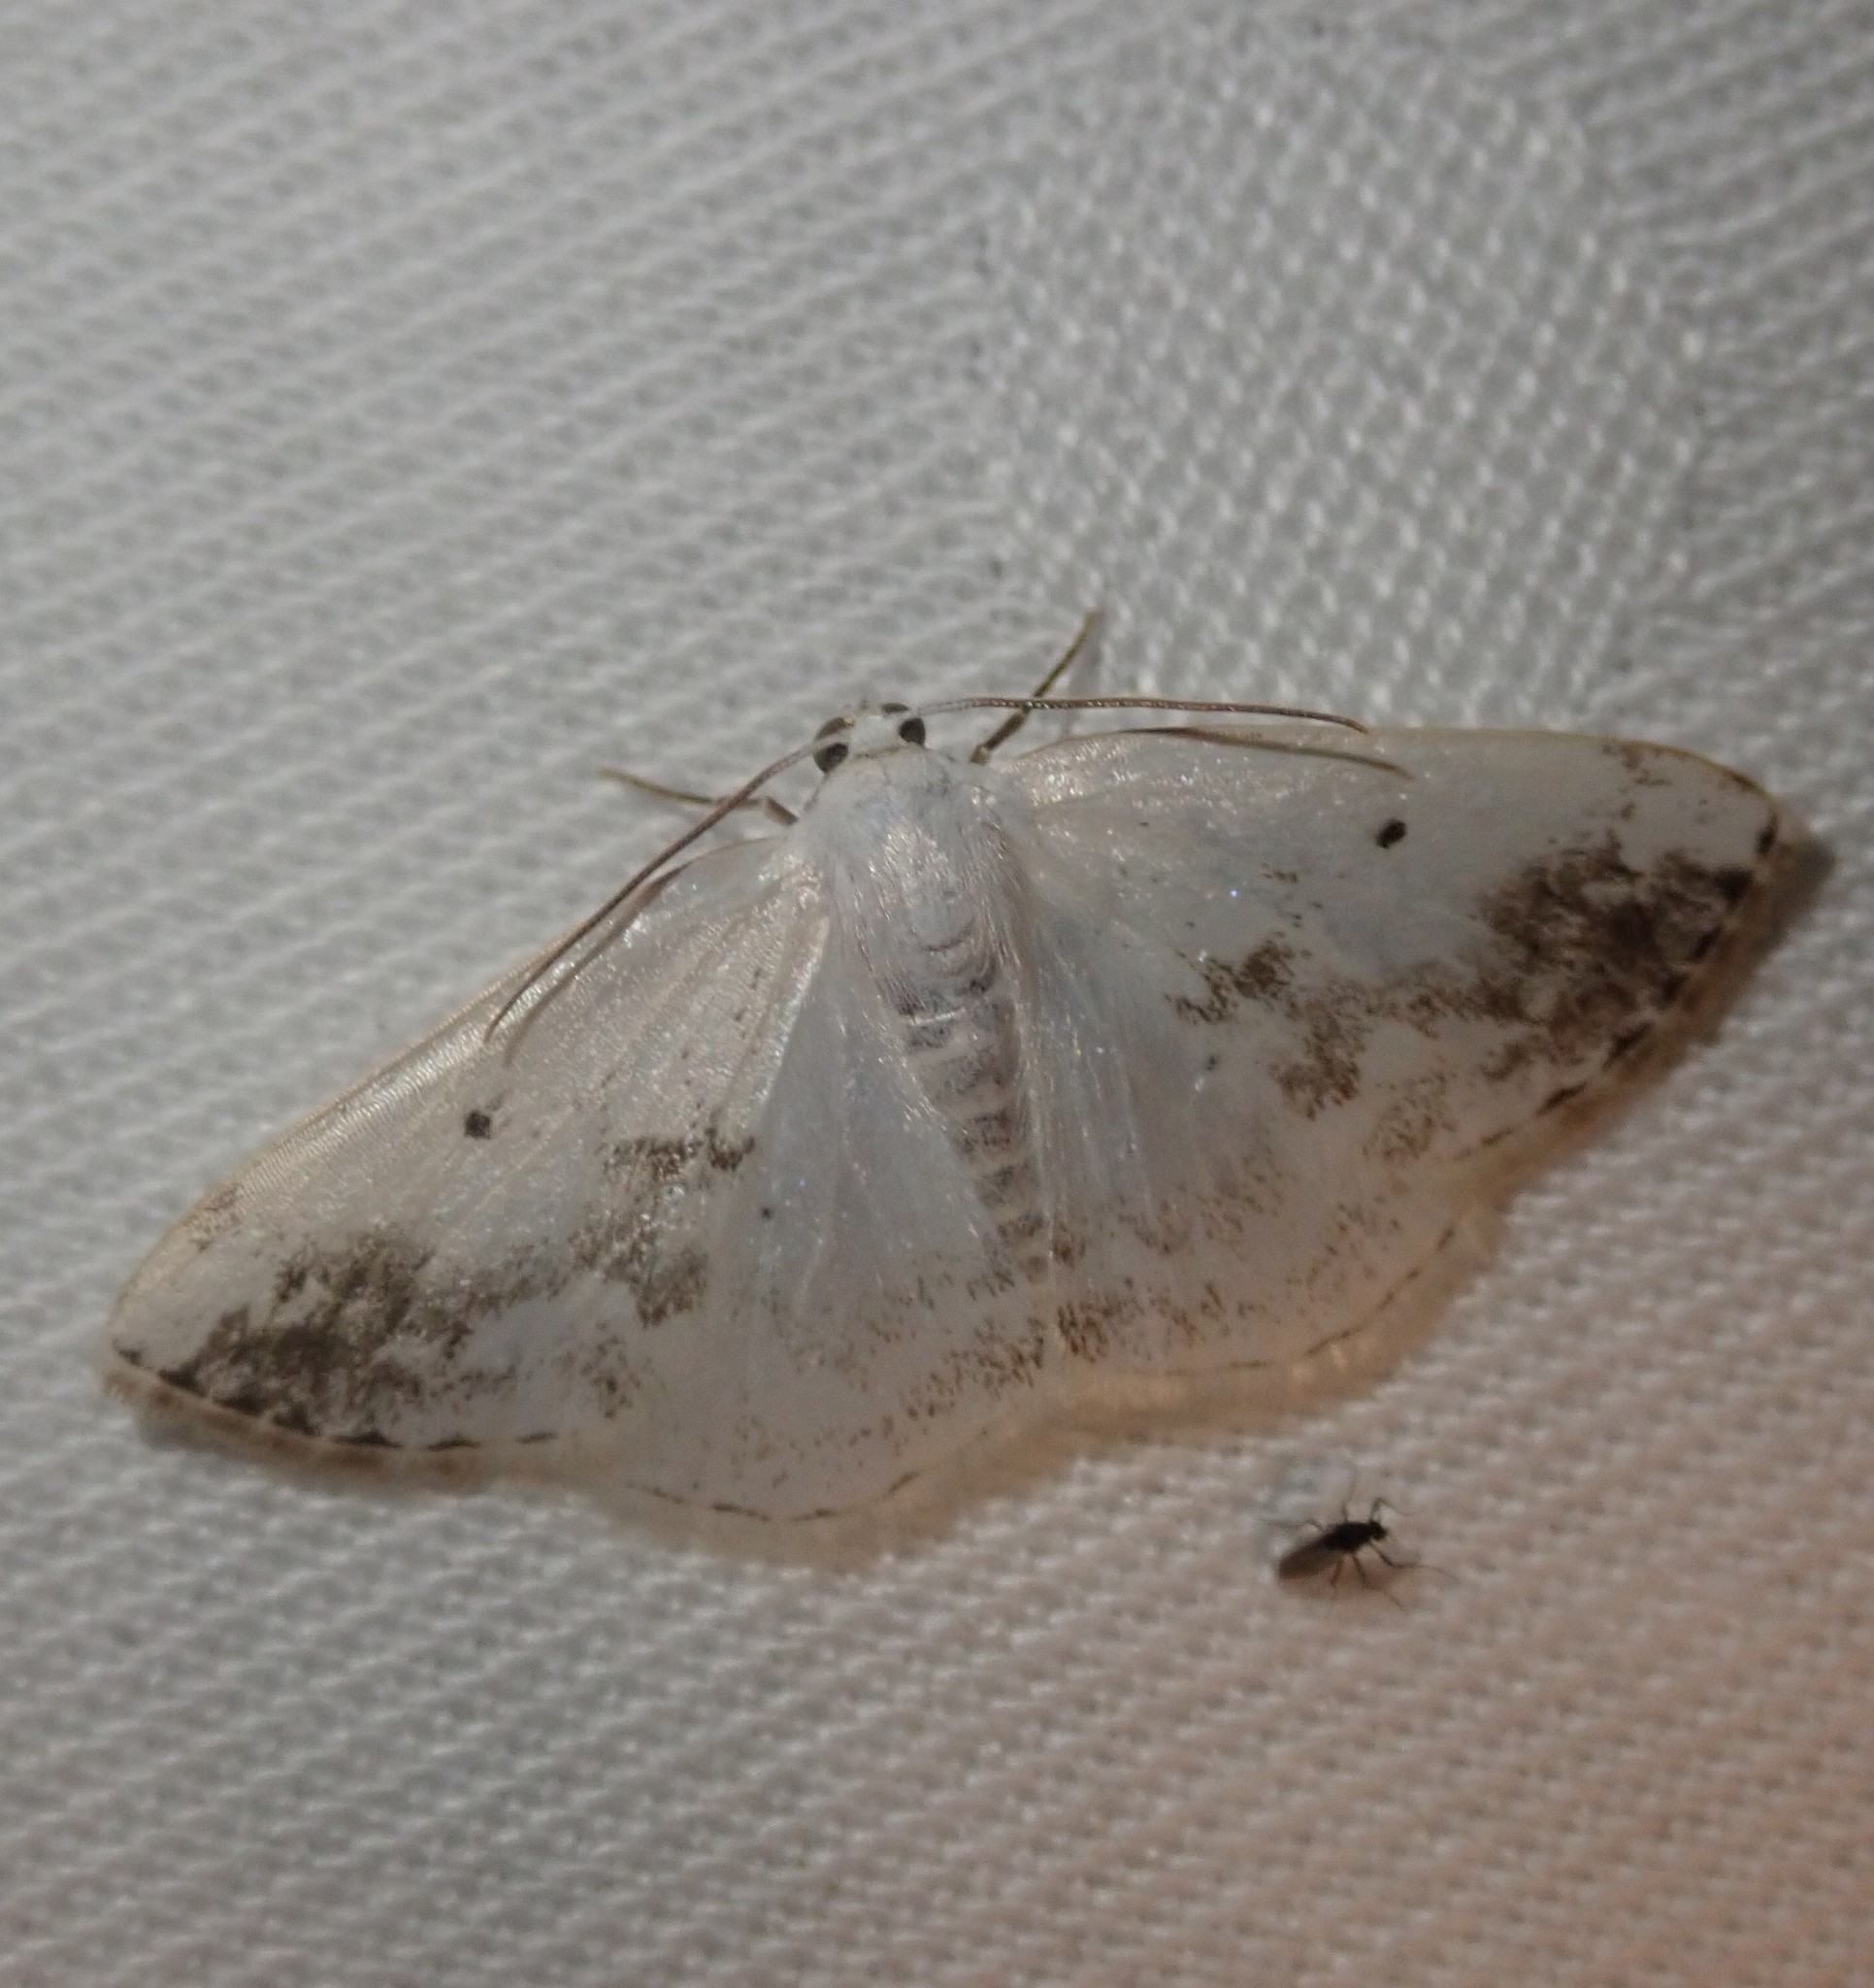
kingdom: Animalia
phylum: Arthropoda
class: Insecta
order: Lepidoptera
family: Geometridae
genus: Lomographa
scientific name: Lomographa temerata
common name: Clouded silver
